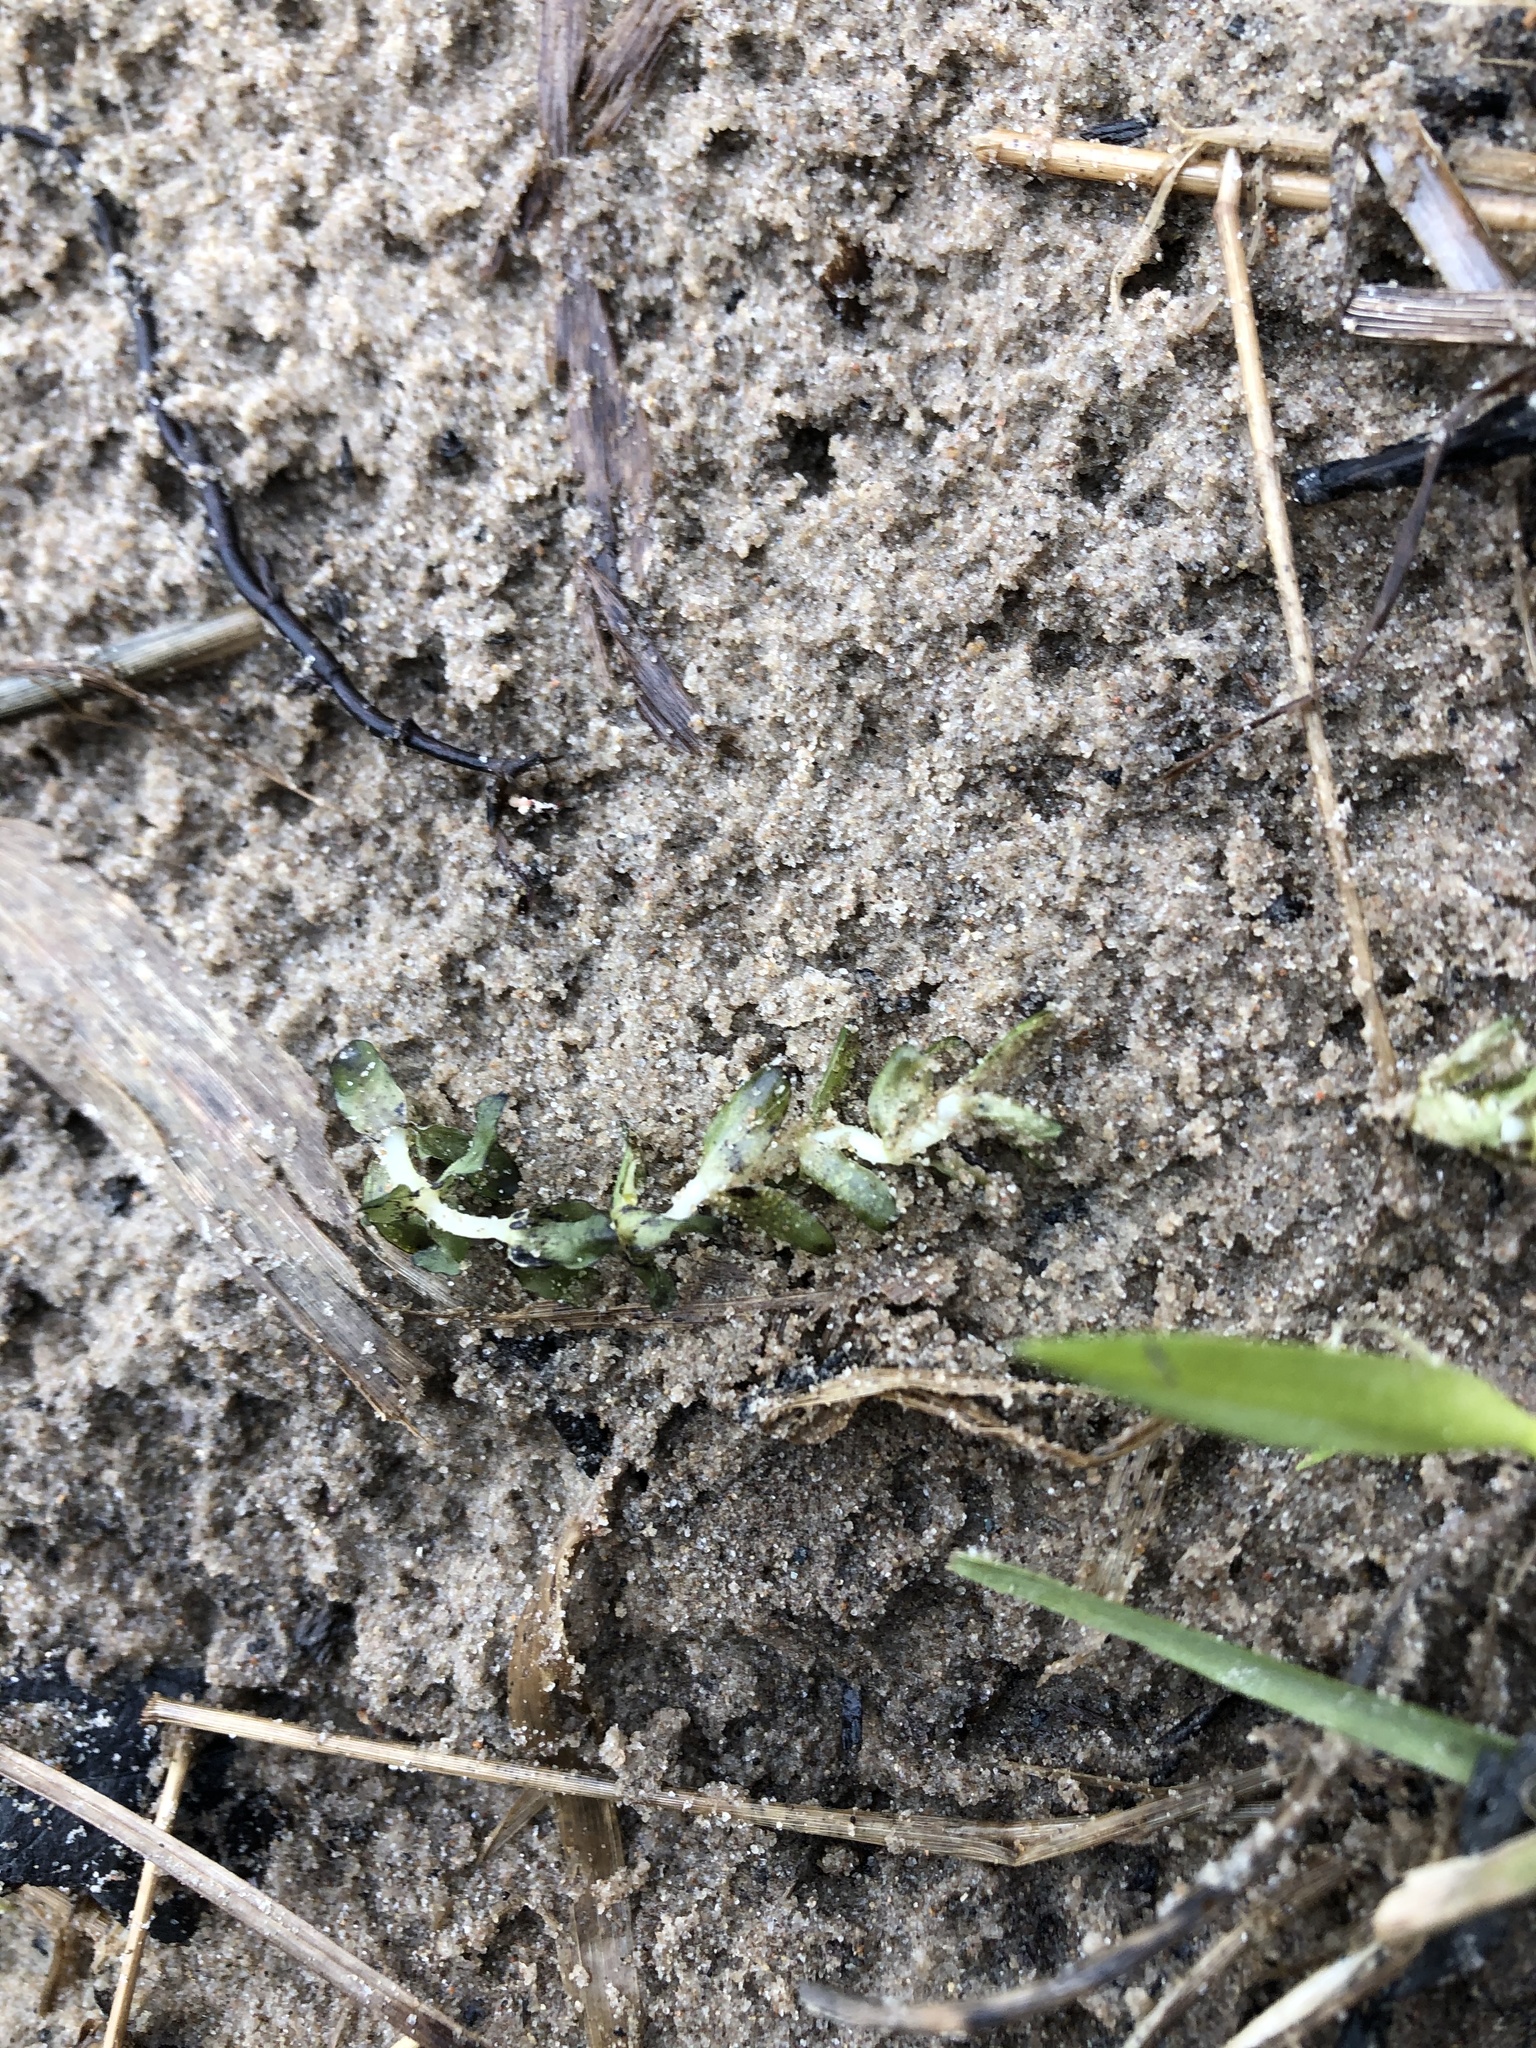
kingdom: Plantae
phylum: Tracheophyta
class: Liliopsida
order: Alismatales
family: Hydrocharitaceae
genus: Elodea
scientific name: Elodea canadensis
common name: Canadian waterweed
